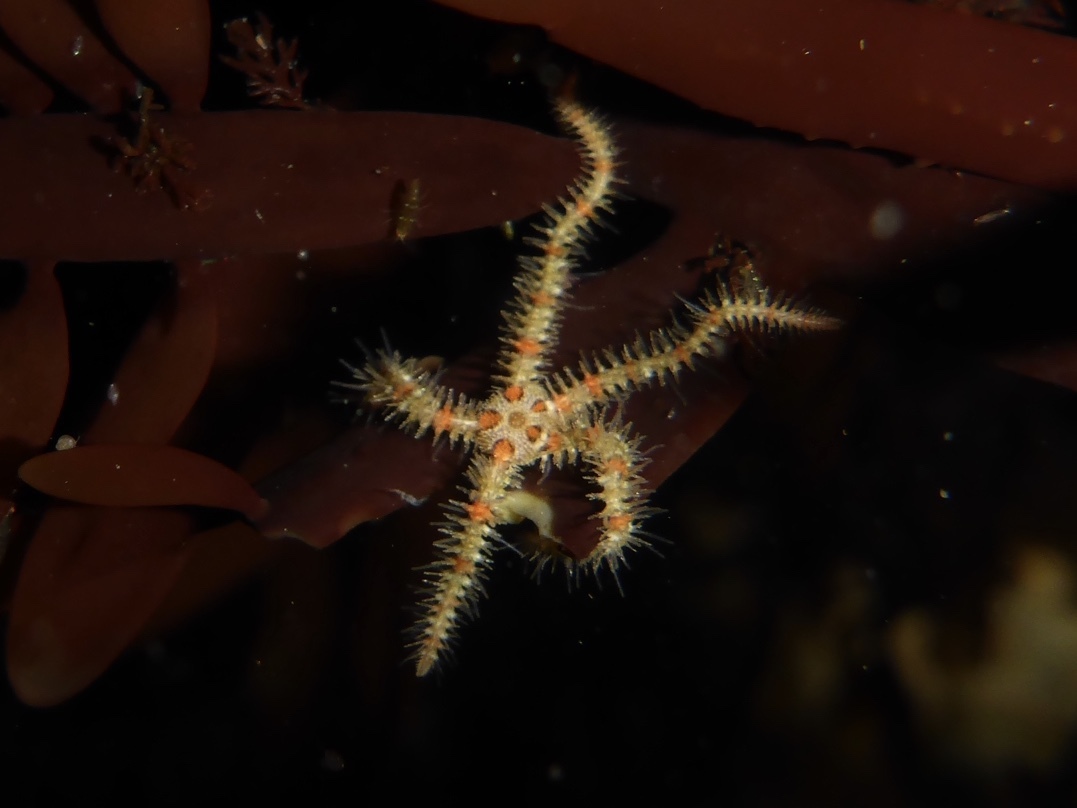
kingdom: Animalia
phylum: Echinodermata
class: Ophiuroidea
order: Amphilepidida
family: Ophiotrichidae
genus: Ophiothrix
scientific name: Ophiothrix spiculata
